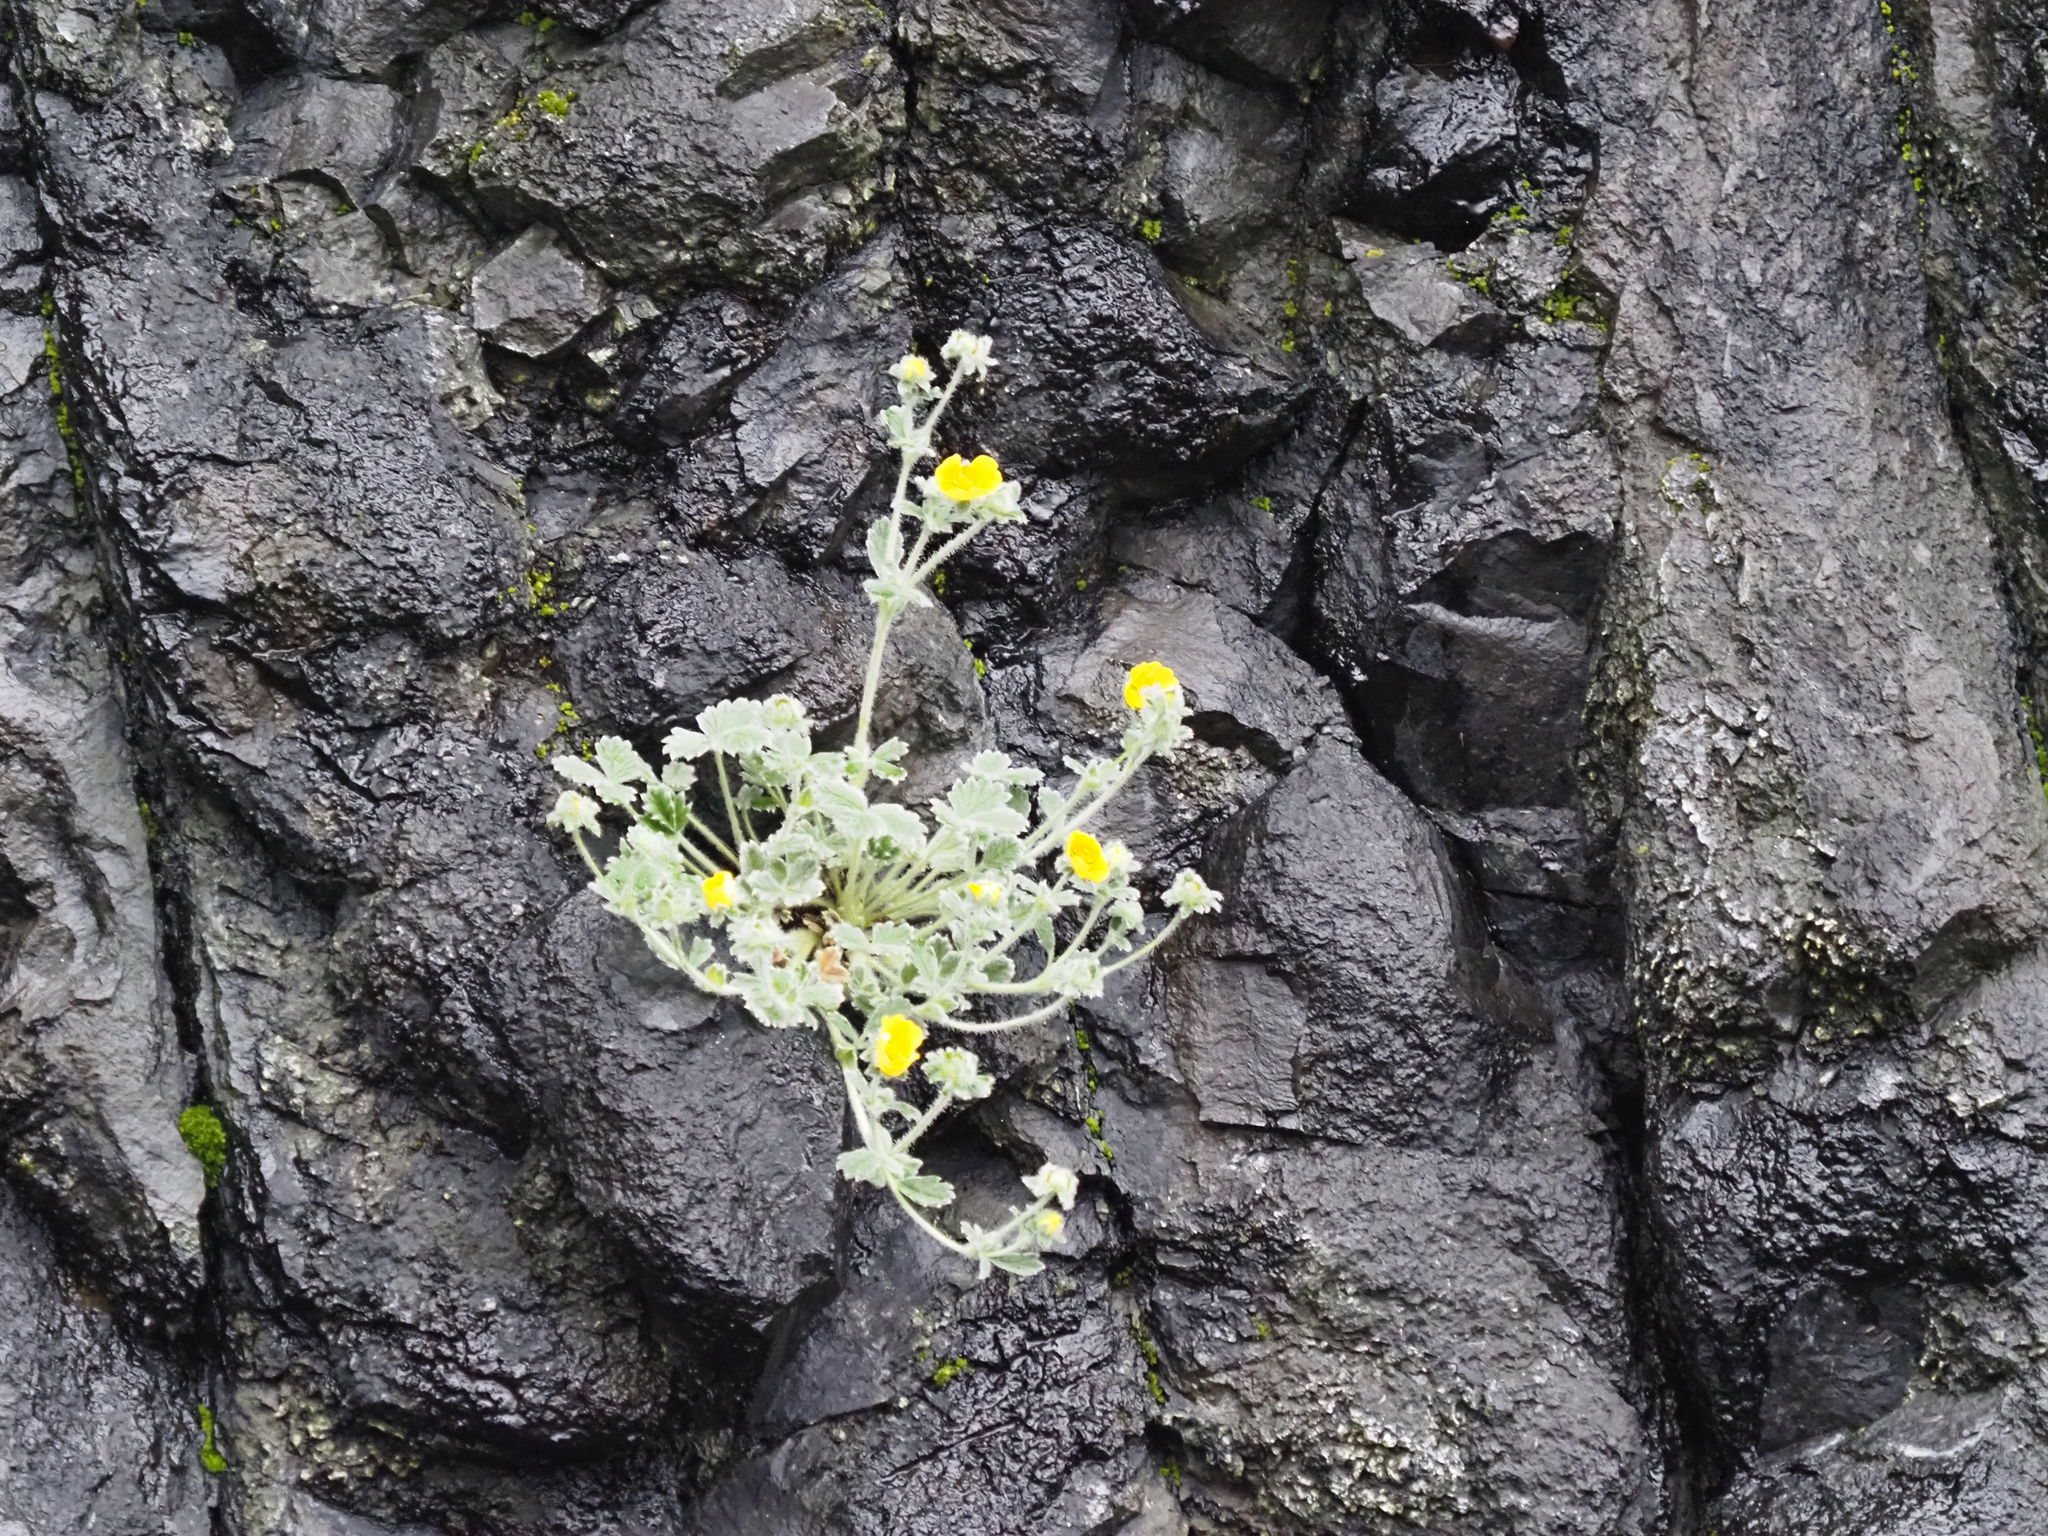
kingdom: Plantae
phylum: Tracheophyta
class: Magnoliopsida
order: Rosales
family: Rosaceae
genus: Potentilla
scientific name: Potentilla villosa
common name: Northern cinquefoil
